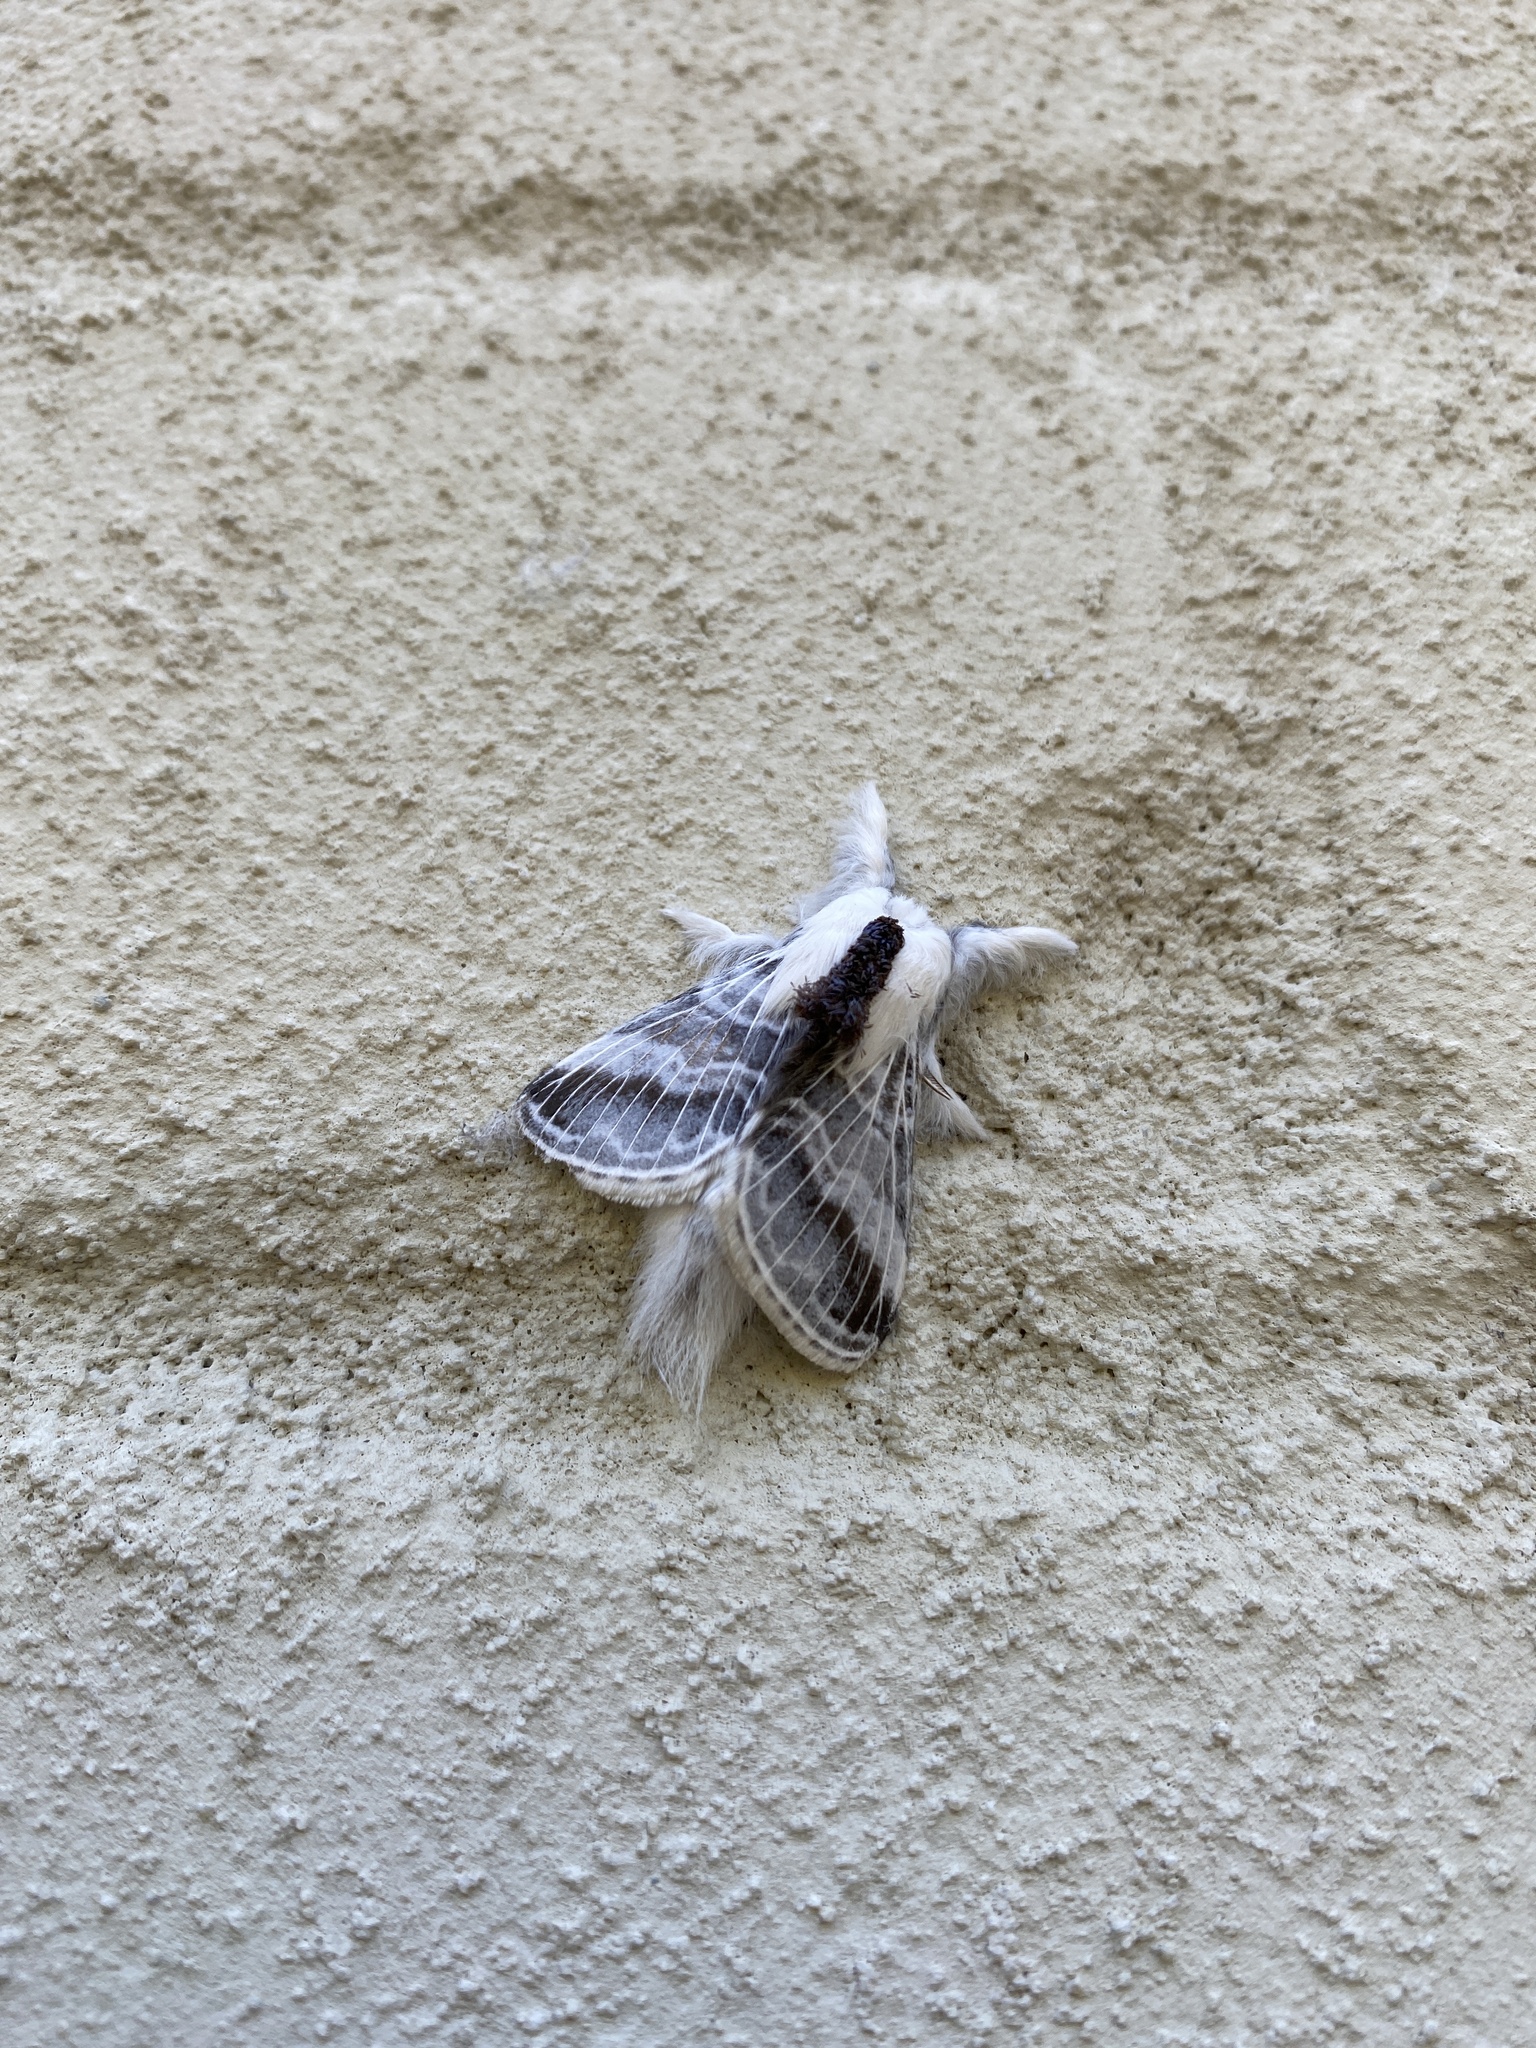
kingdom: Animalia
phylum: Arthropoda
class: Insecta
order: Lepidoptera
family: Lasiocampidae
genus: Tolype
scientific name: Tolype velleda
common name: Large tolype moth
